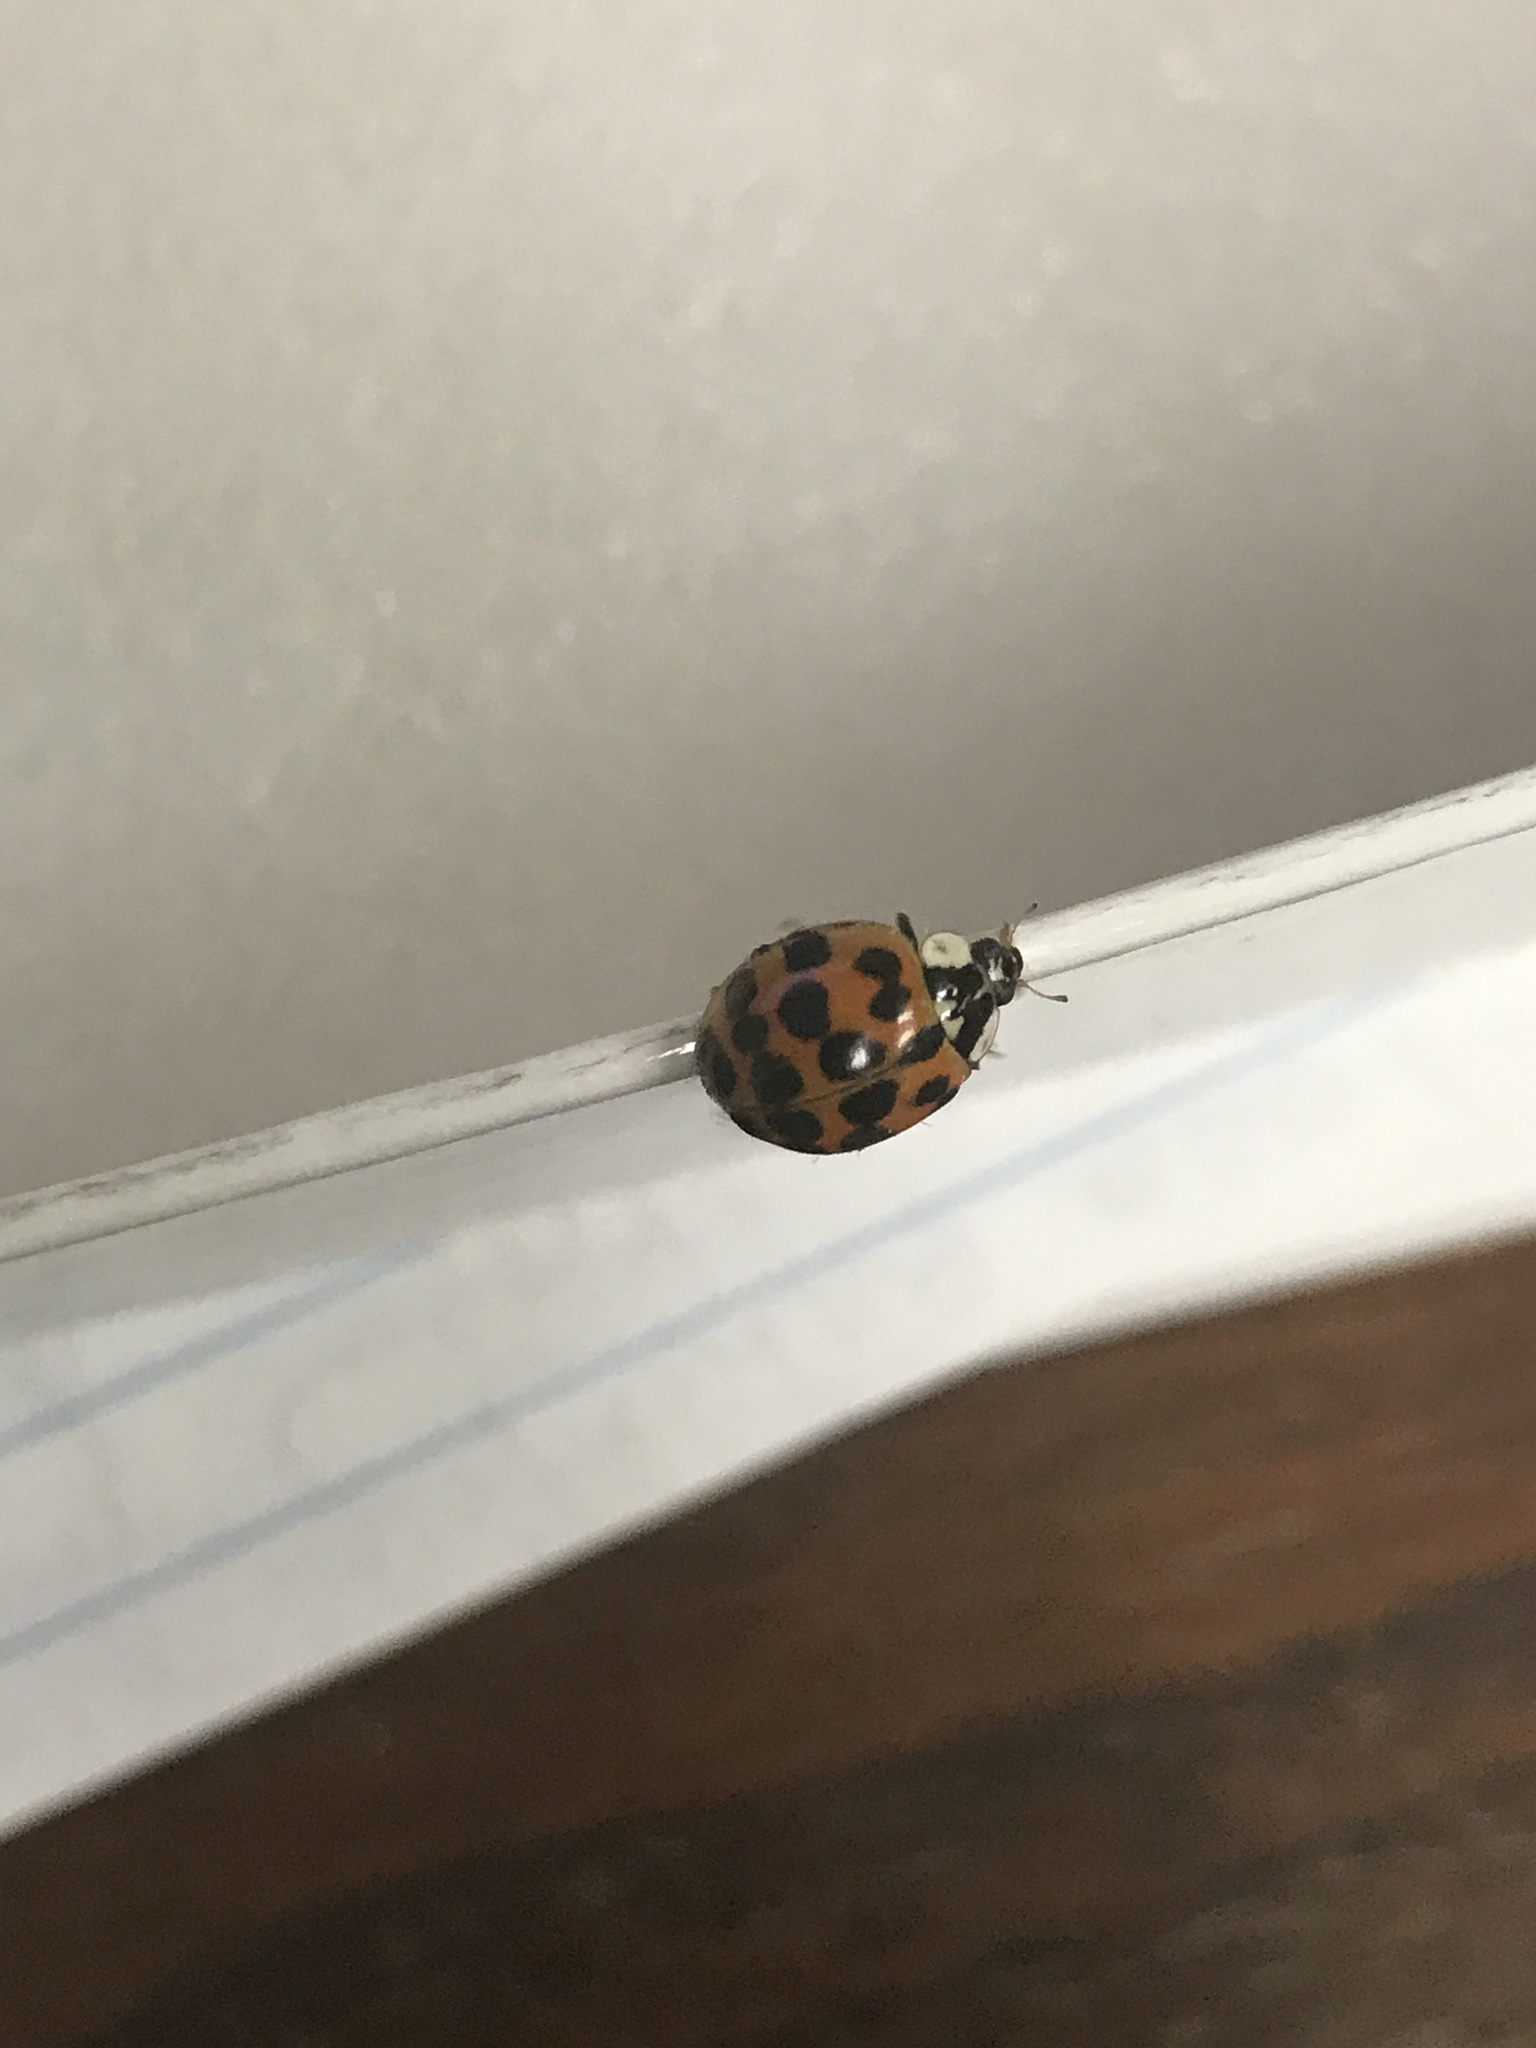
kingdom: Animalia
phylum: Arthropoda
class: Insecta
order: Coleoptera
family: Coccinellidae
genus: Harmonia
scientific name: Harmonia axyridis
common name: Harlequin ladybird
